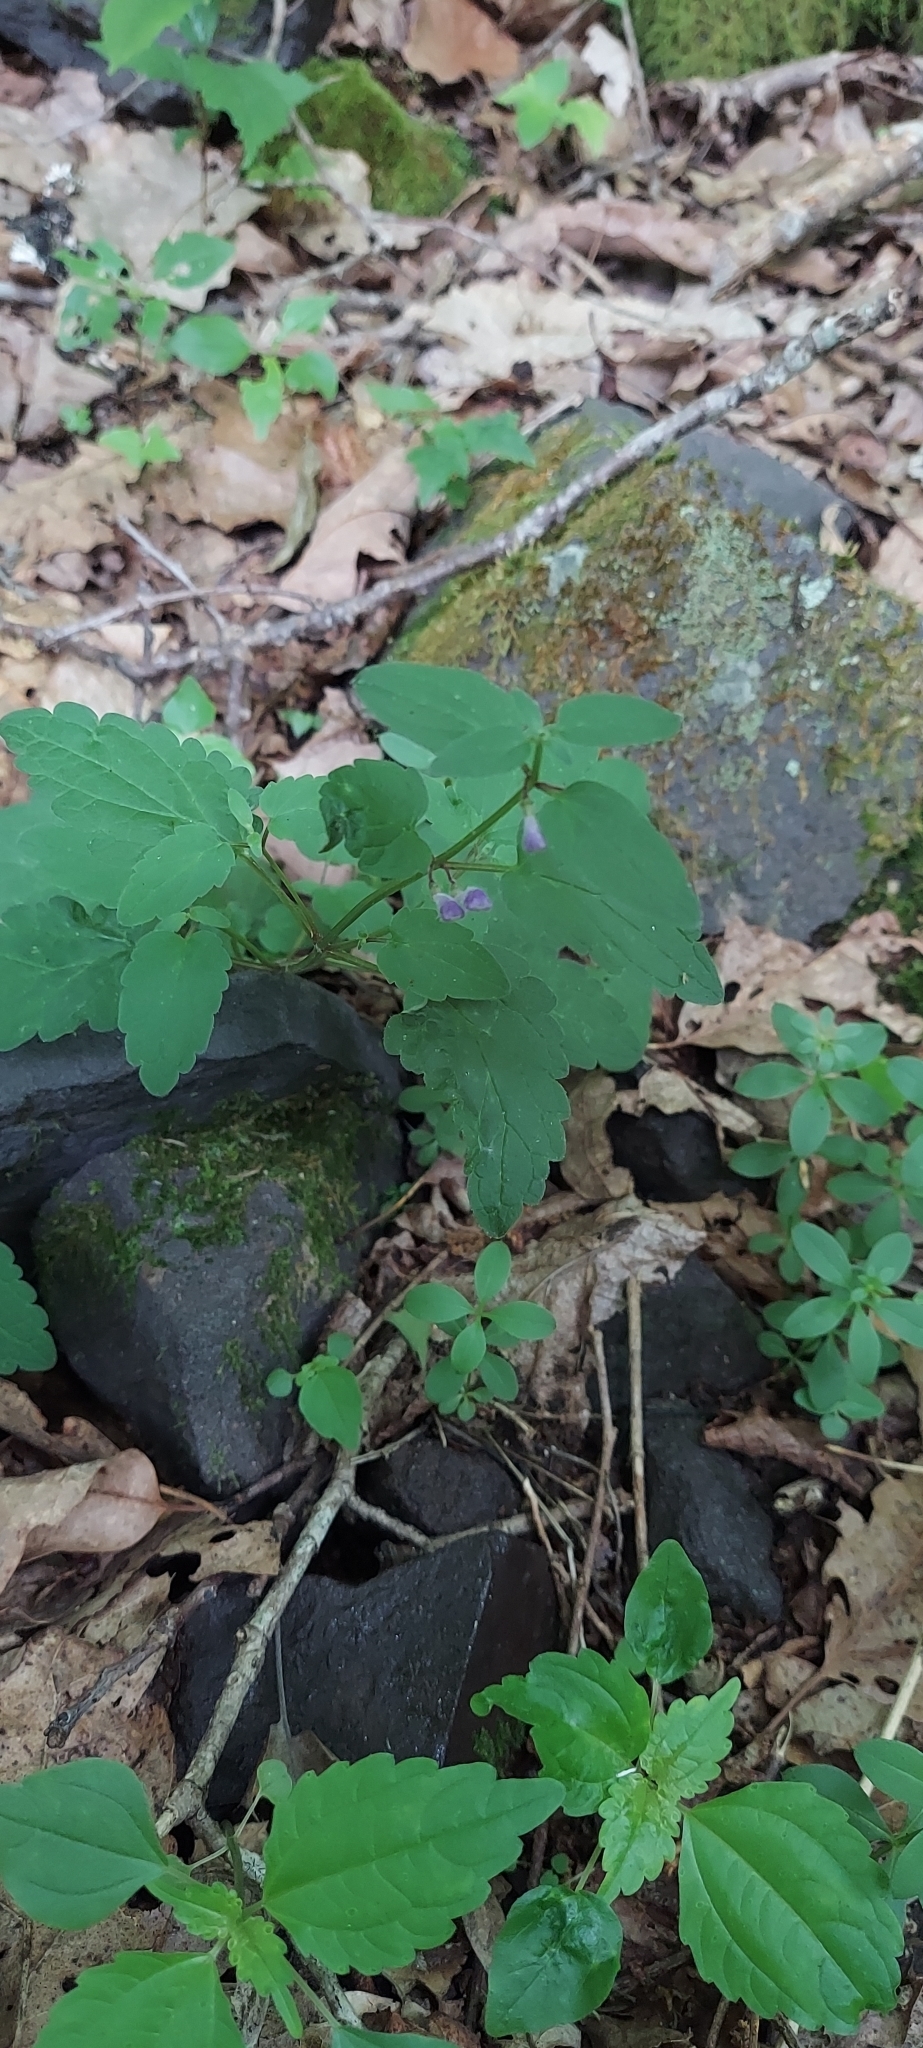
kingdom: Plantae
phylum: Tracheophyta
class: Magnoliopsida
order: Lamiales
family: Lamiaceae
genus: Scutellaria
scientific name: Scutellaria saxatilis
